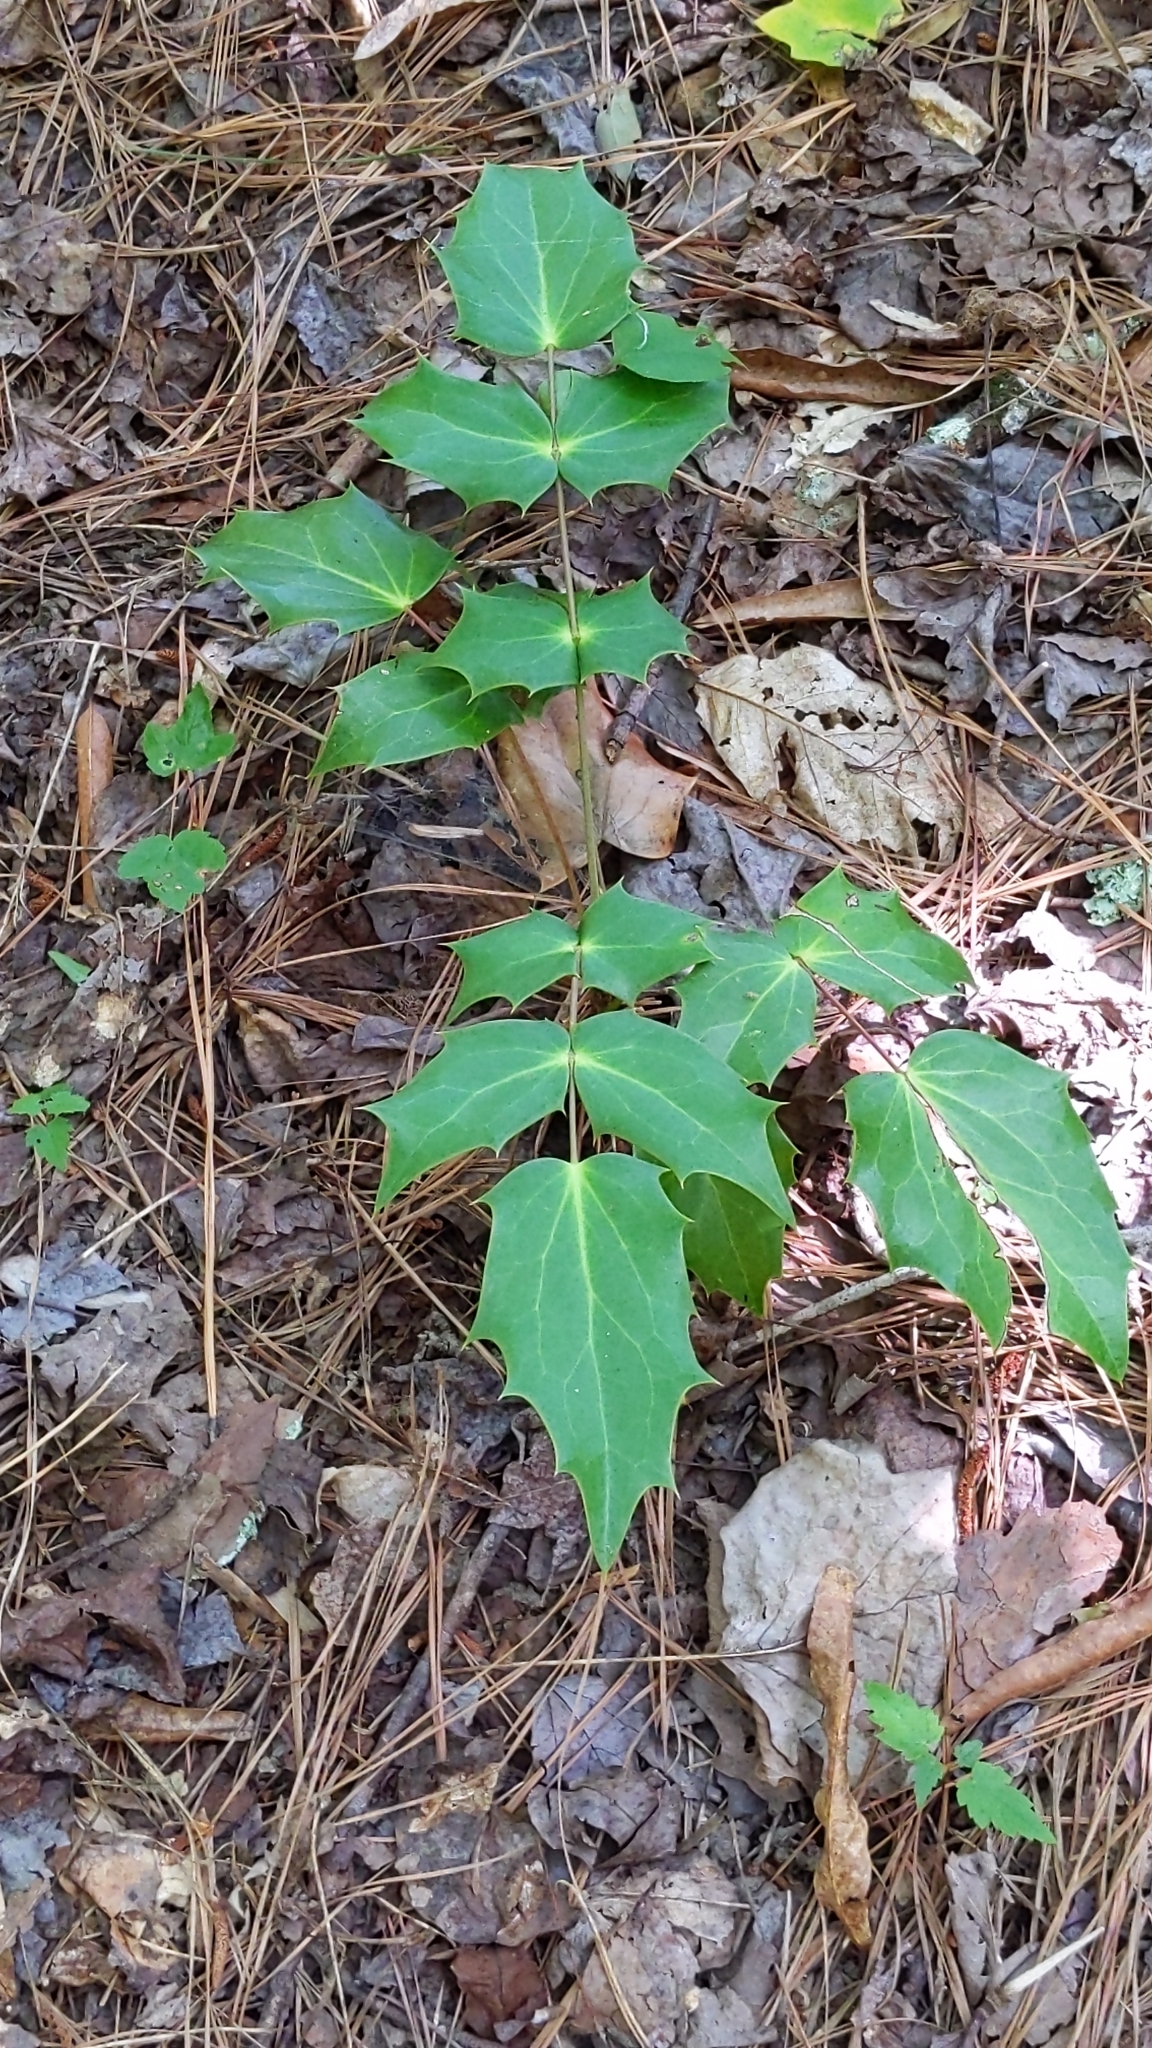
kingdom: Plantae
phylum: Tracheophyta
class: Magnoliopsida
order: Ranunculales
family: Berberidaceae
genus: Mahonia
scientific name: Mahonia bealei
